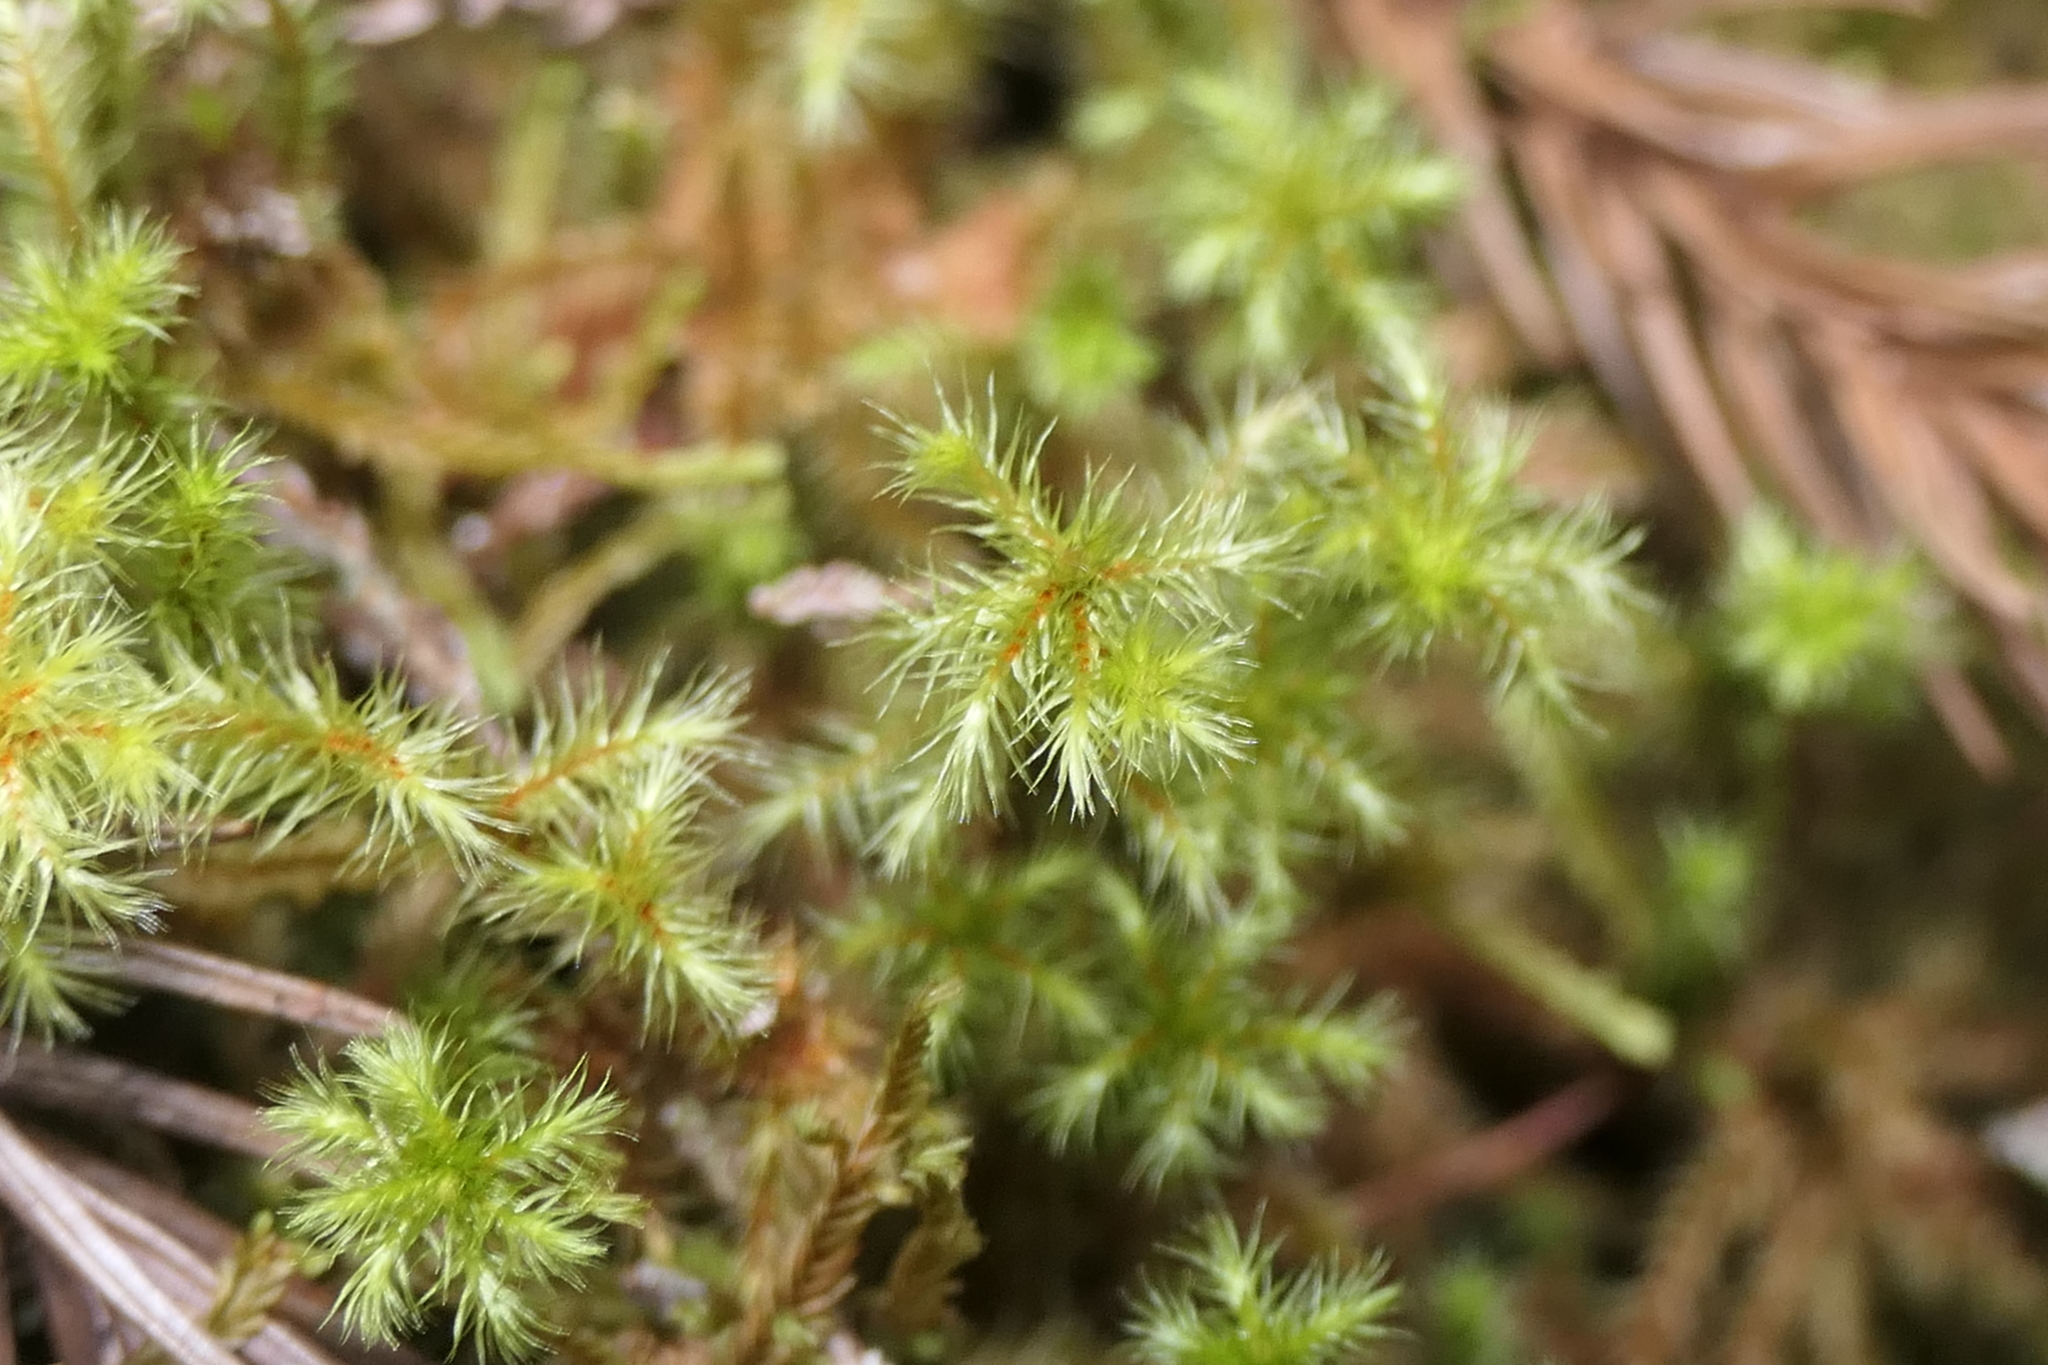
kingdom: Plantae
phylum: Bryophyta
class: Bryopsida
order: Bartramiales
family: Bartramiaceae
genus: Breutelia
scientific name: Breutelia azorica
